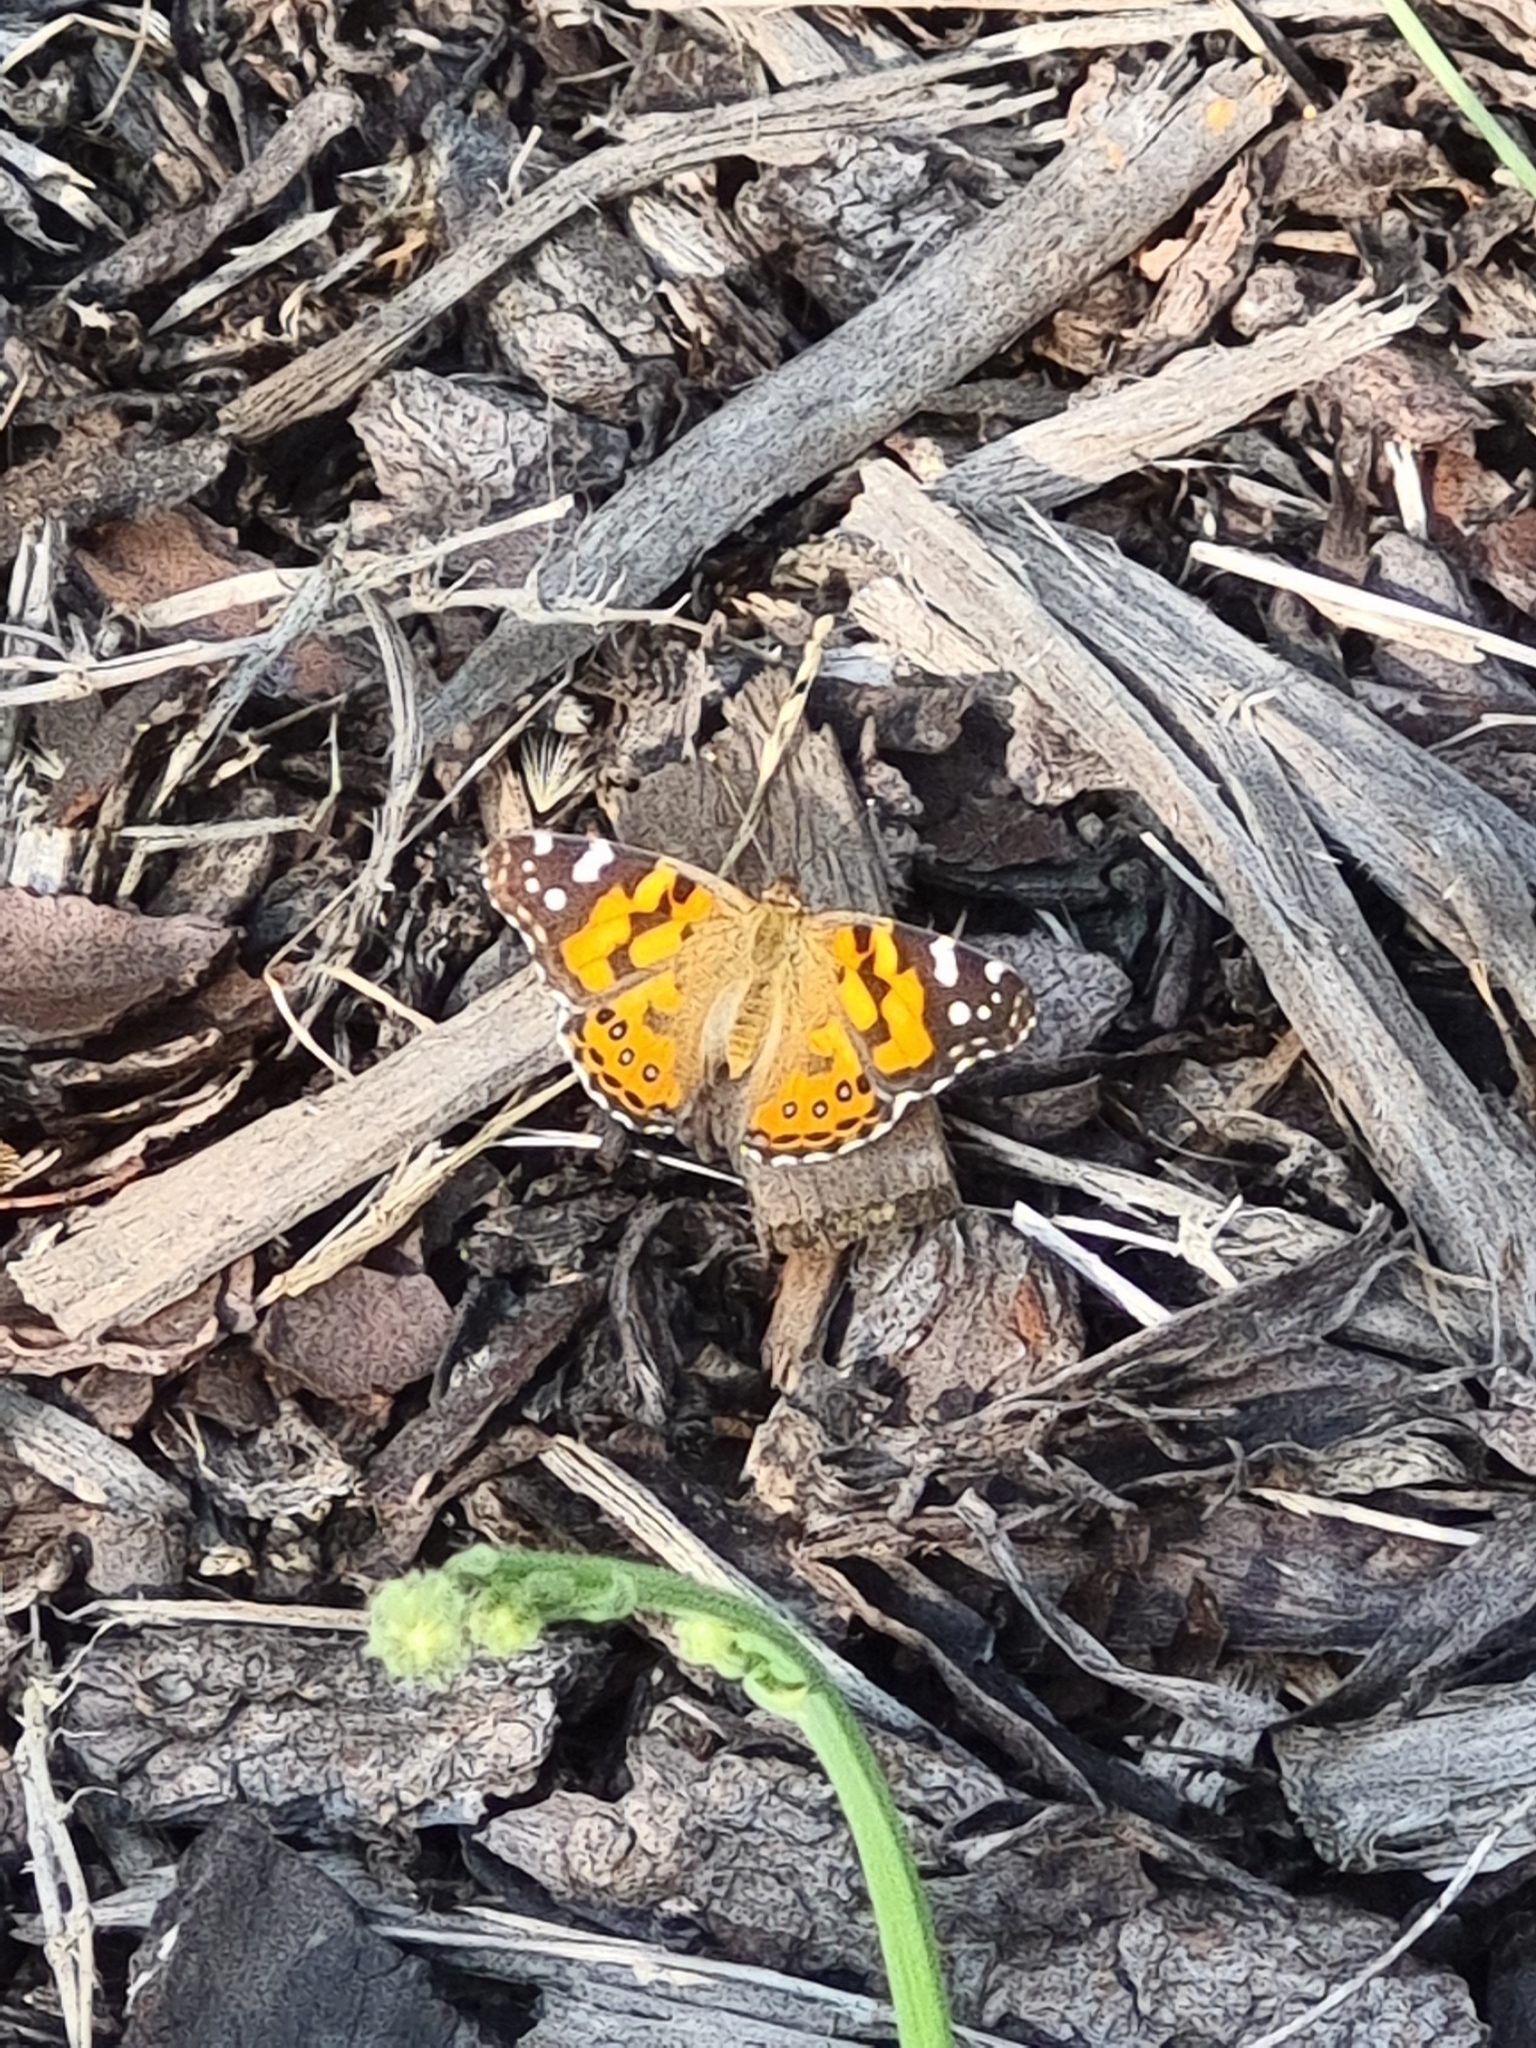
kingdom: Animalia
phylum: Arthropoda
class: Insecta
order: Lepidoptera
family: Nymphalidae
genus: Vanessa
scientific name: Vanessa kershawi
